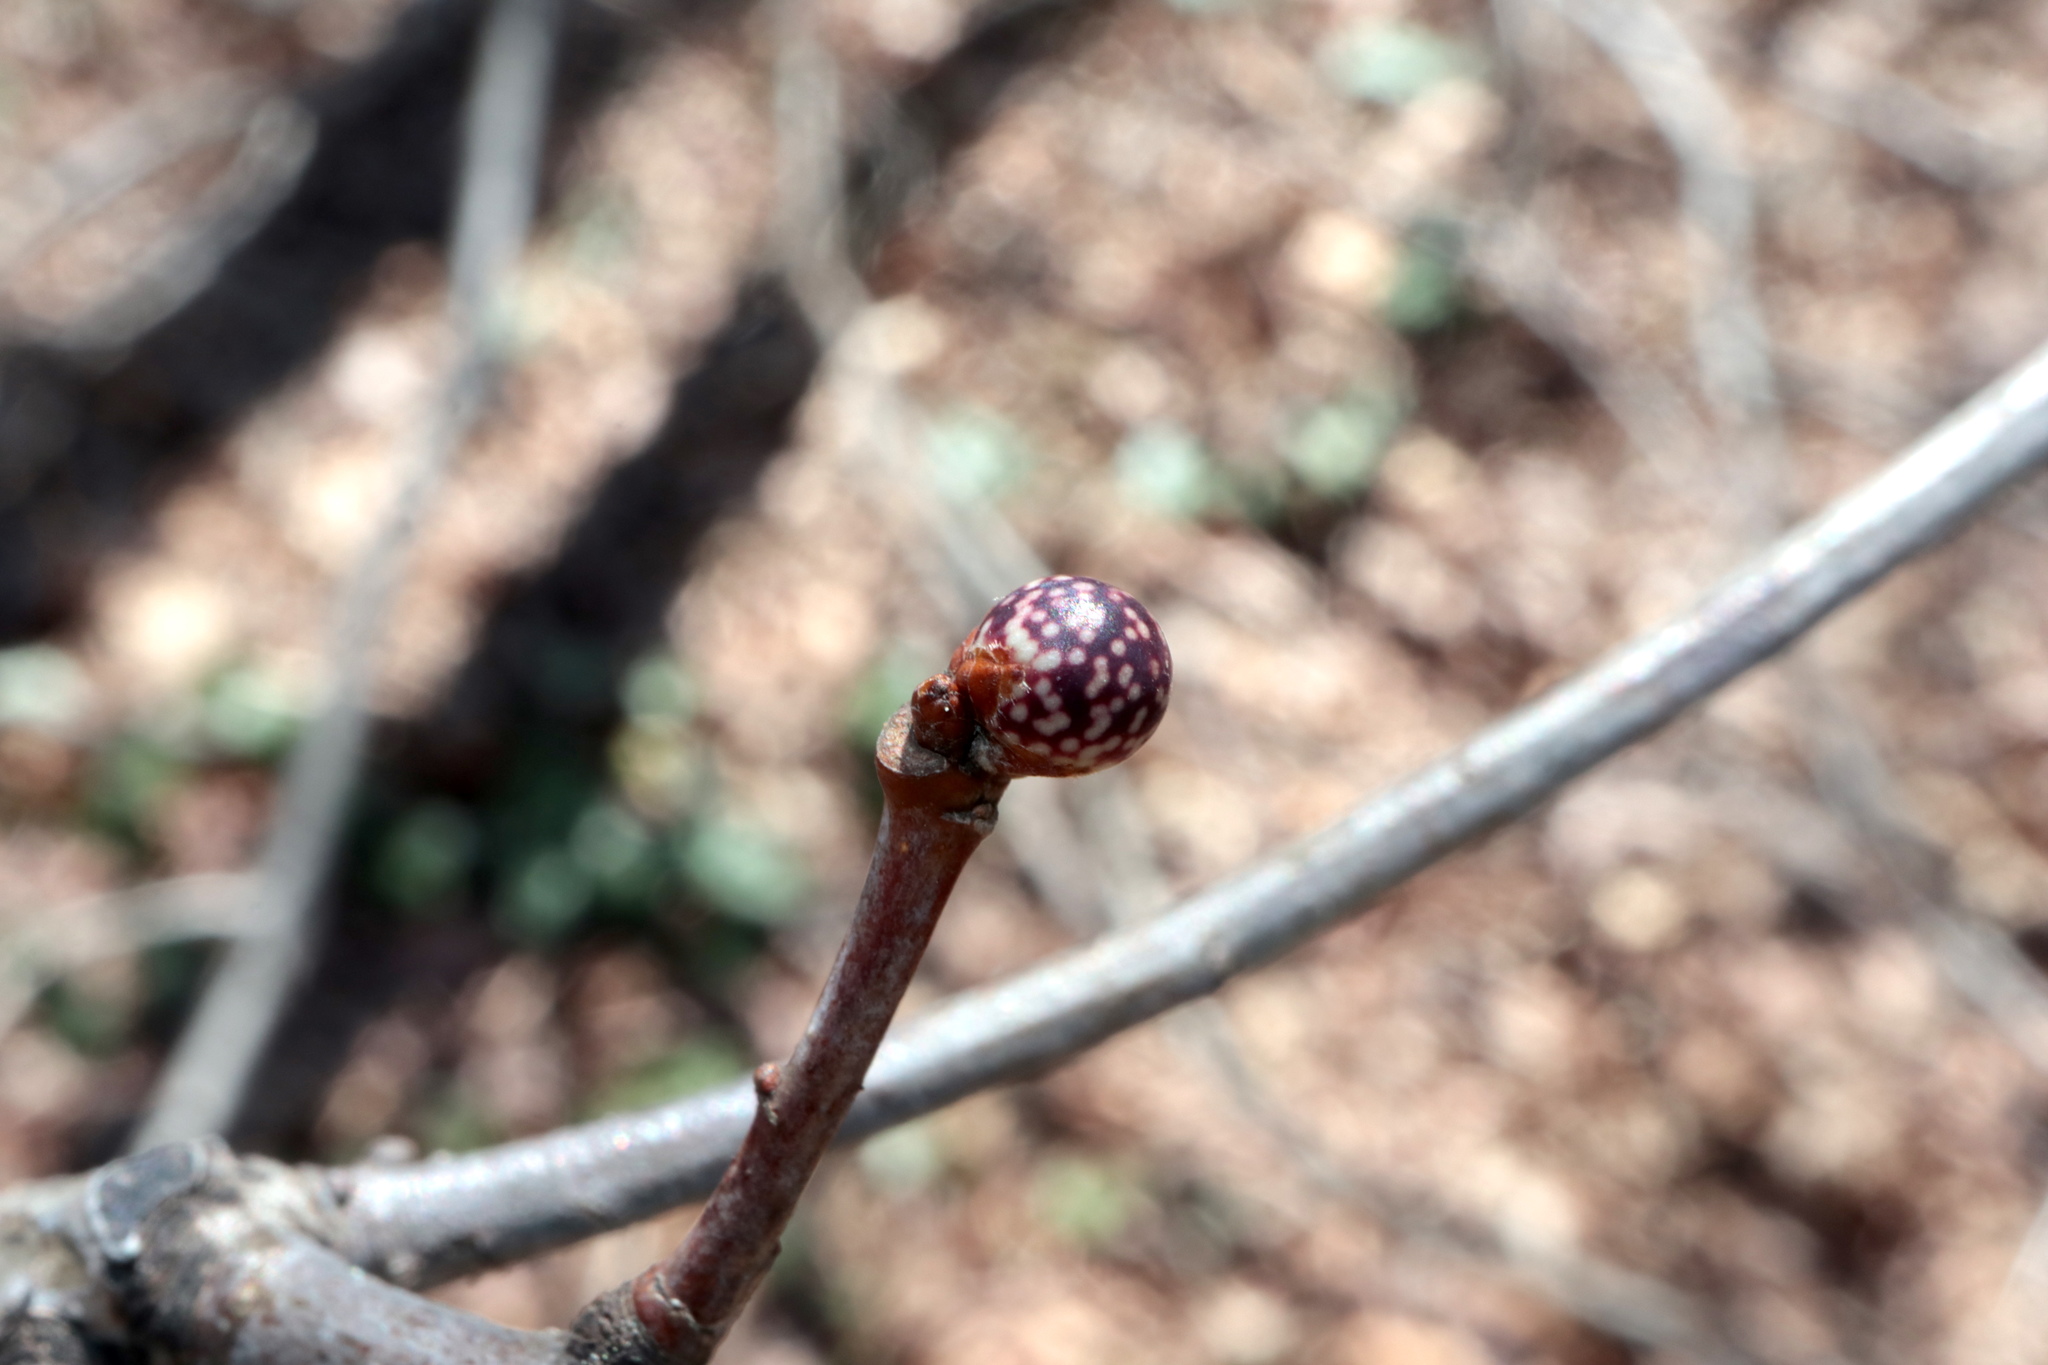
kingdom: Animalia
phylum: Arthropoda
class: Insecta
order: Hymenoptera
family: Cynipidae
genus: Andricus
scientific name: Andricus
